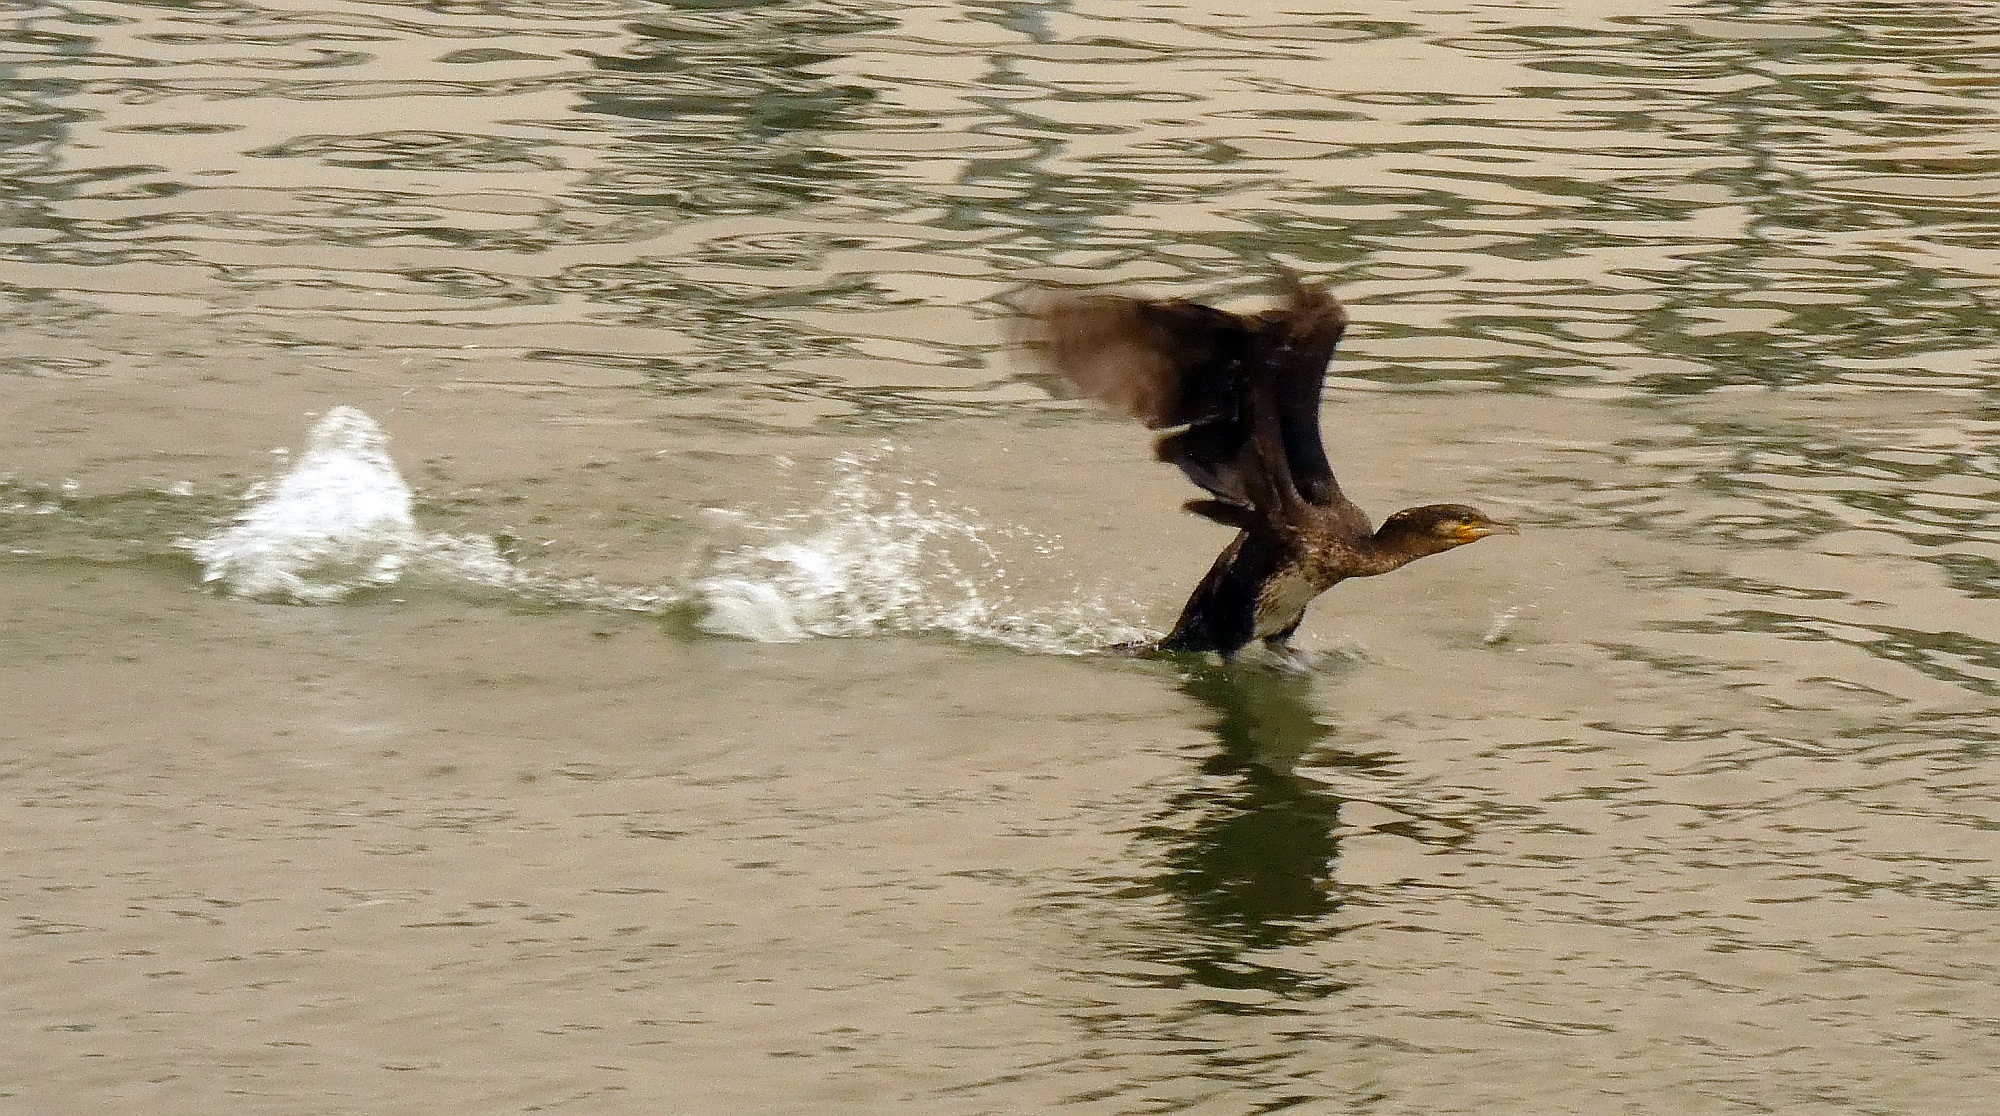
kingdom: Animalia
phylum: Chordata
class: Aves
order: Suliformes
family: Phalacrocoracidae
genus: Phalacrocorax
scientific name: Phalacrocorax carbo
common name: Great cormorant
